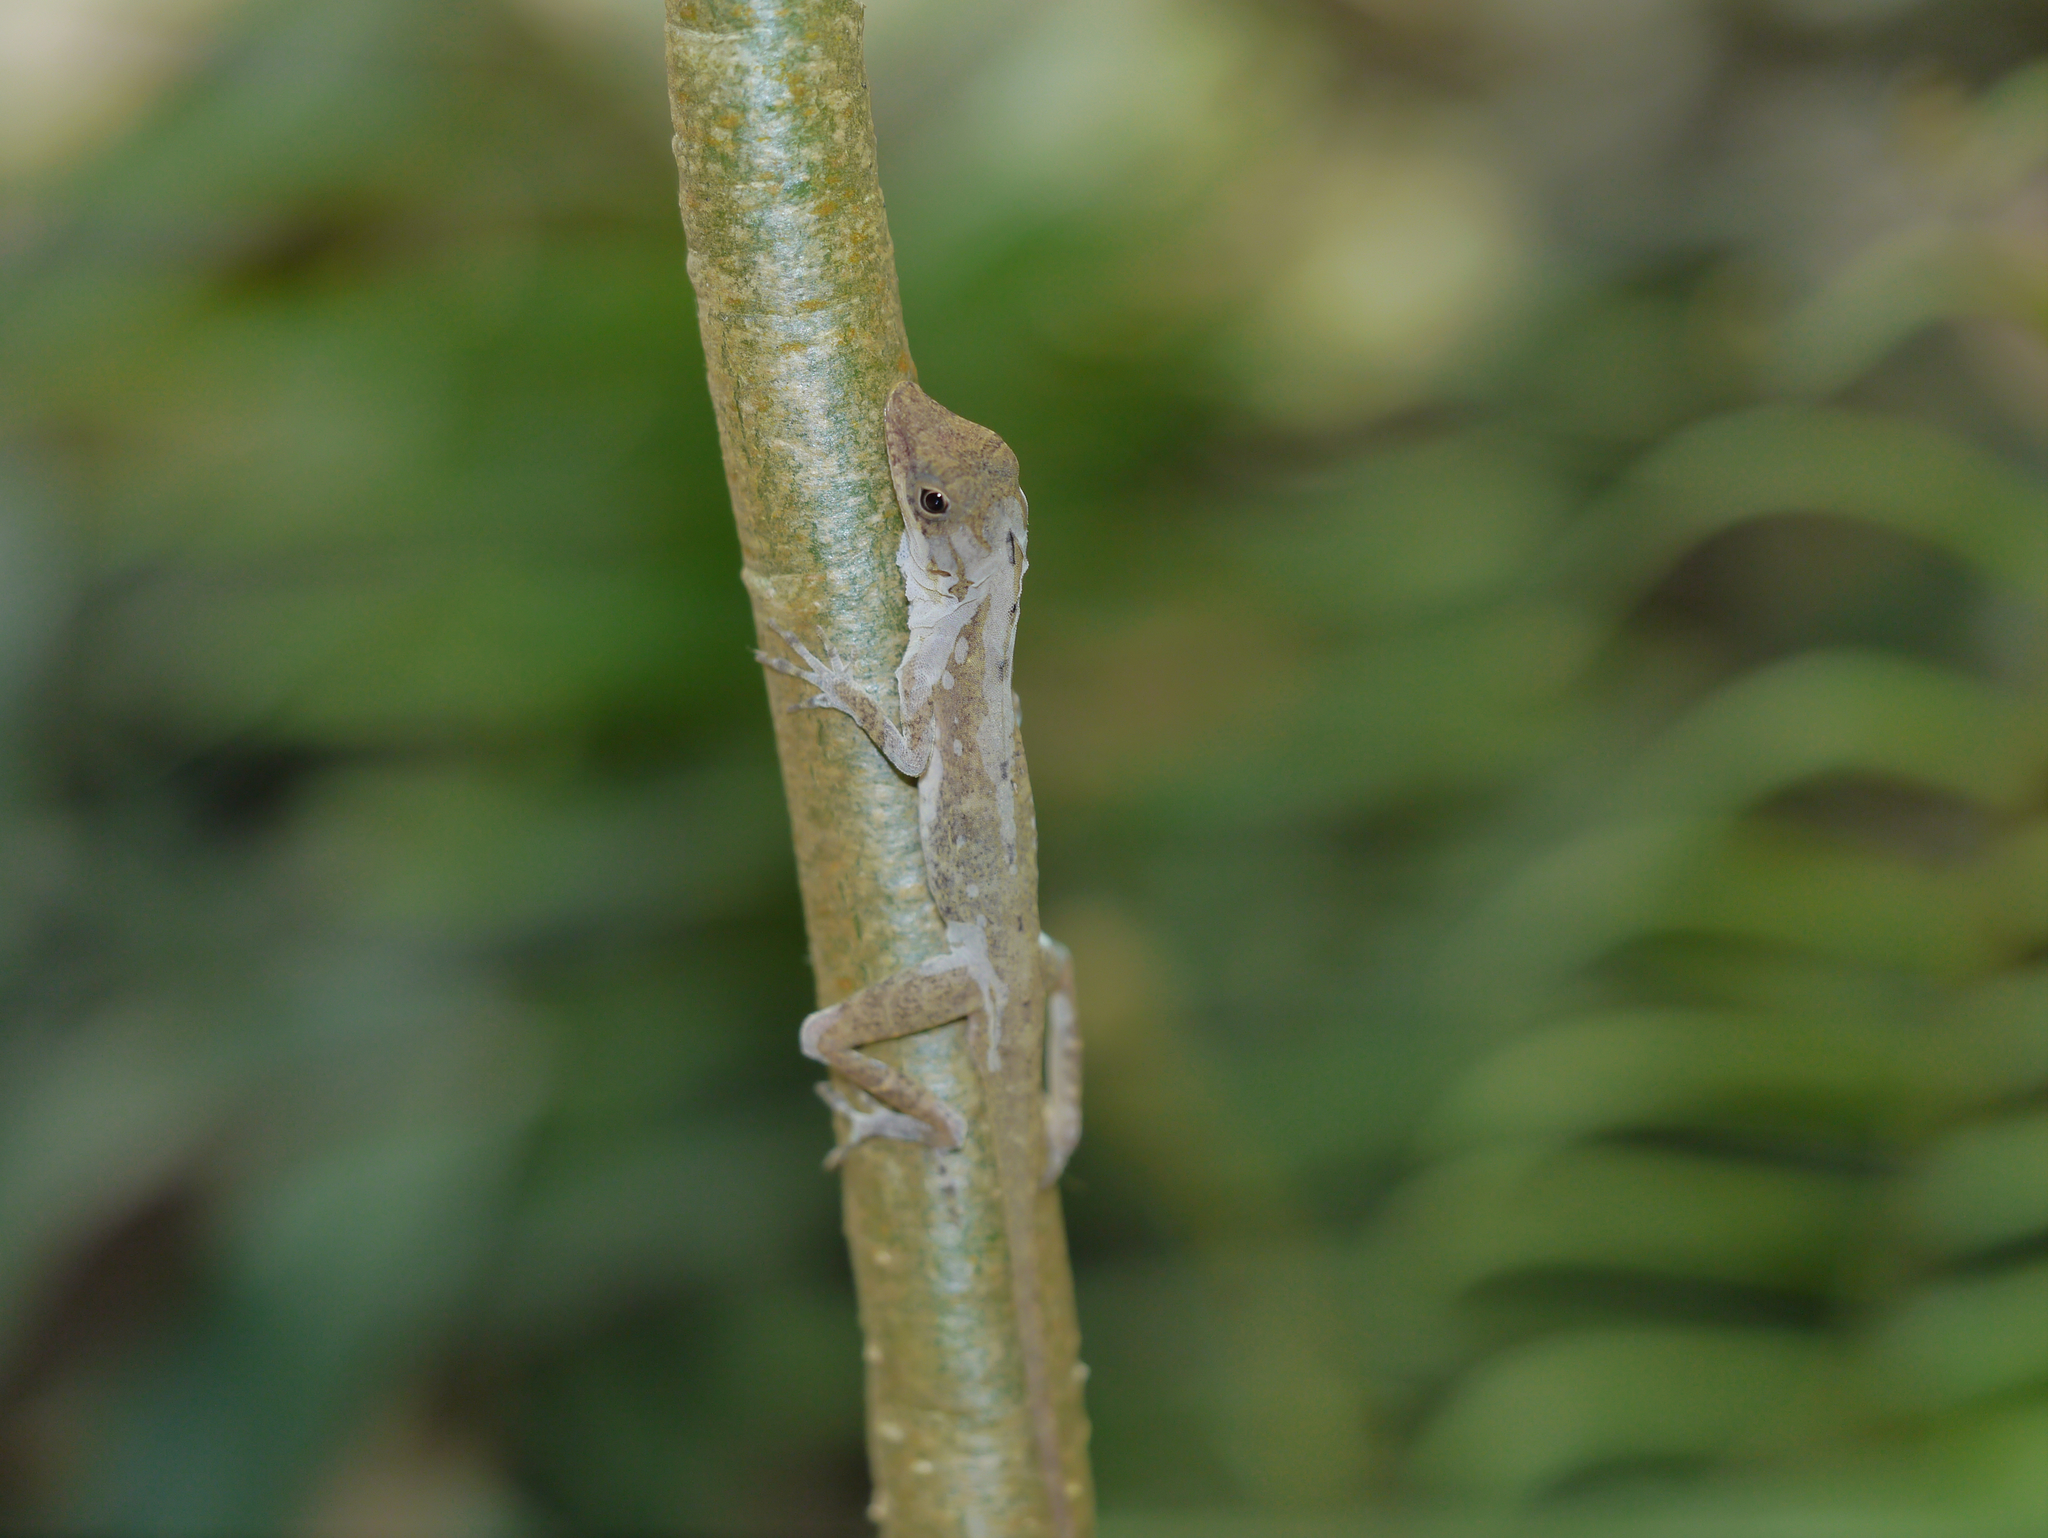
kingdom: Animalia
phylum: Chordata
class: Squamata
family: Dactyloidae
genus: Anolis
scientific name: Anolis rodriguezii
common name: Middle american smooth anole
